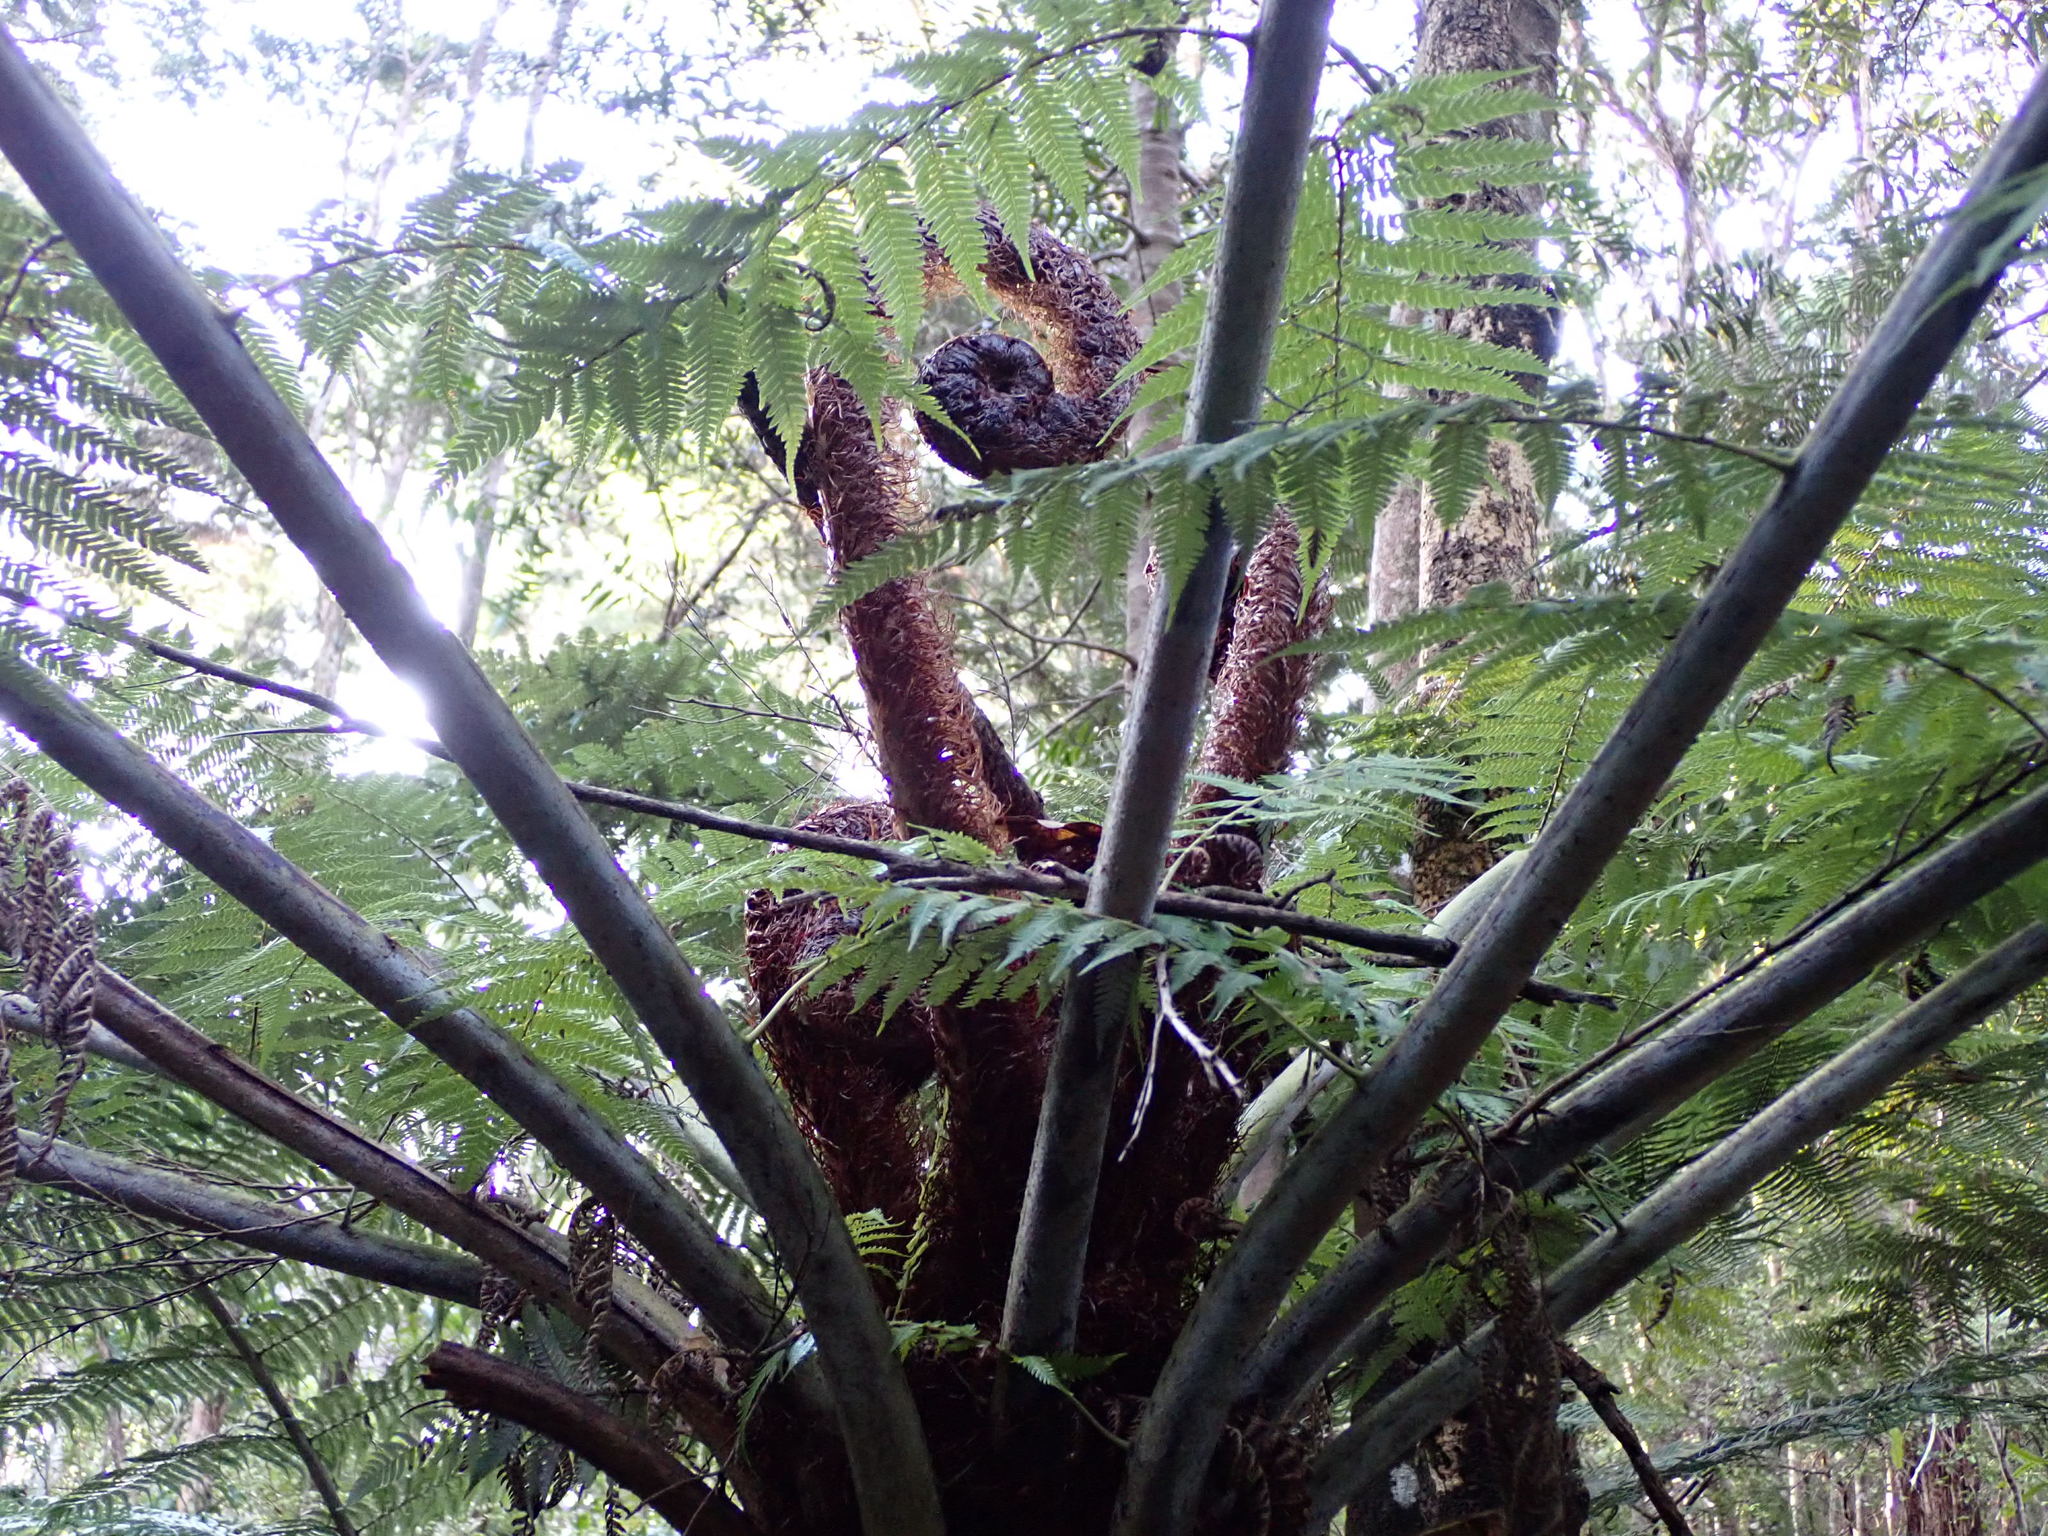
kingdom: Plantae
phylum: Tracheophyta
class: Polypodiopsida
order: Cyatheales
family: Cyatheaceae
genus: Sphaeropteris
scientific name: Sphaeropteris medullaris
